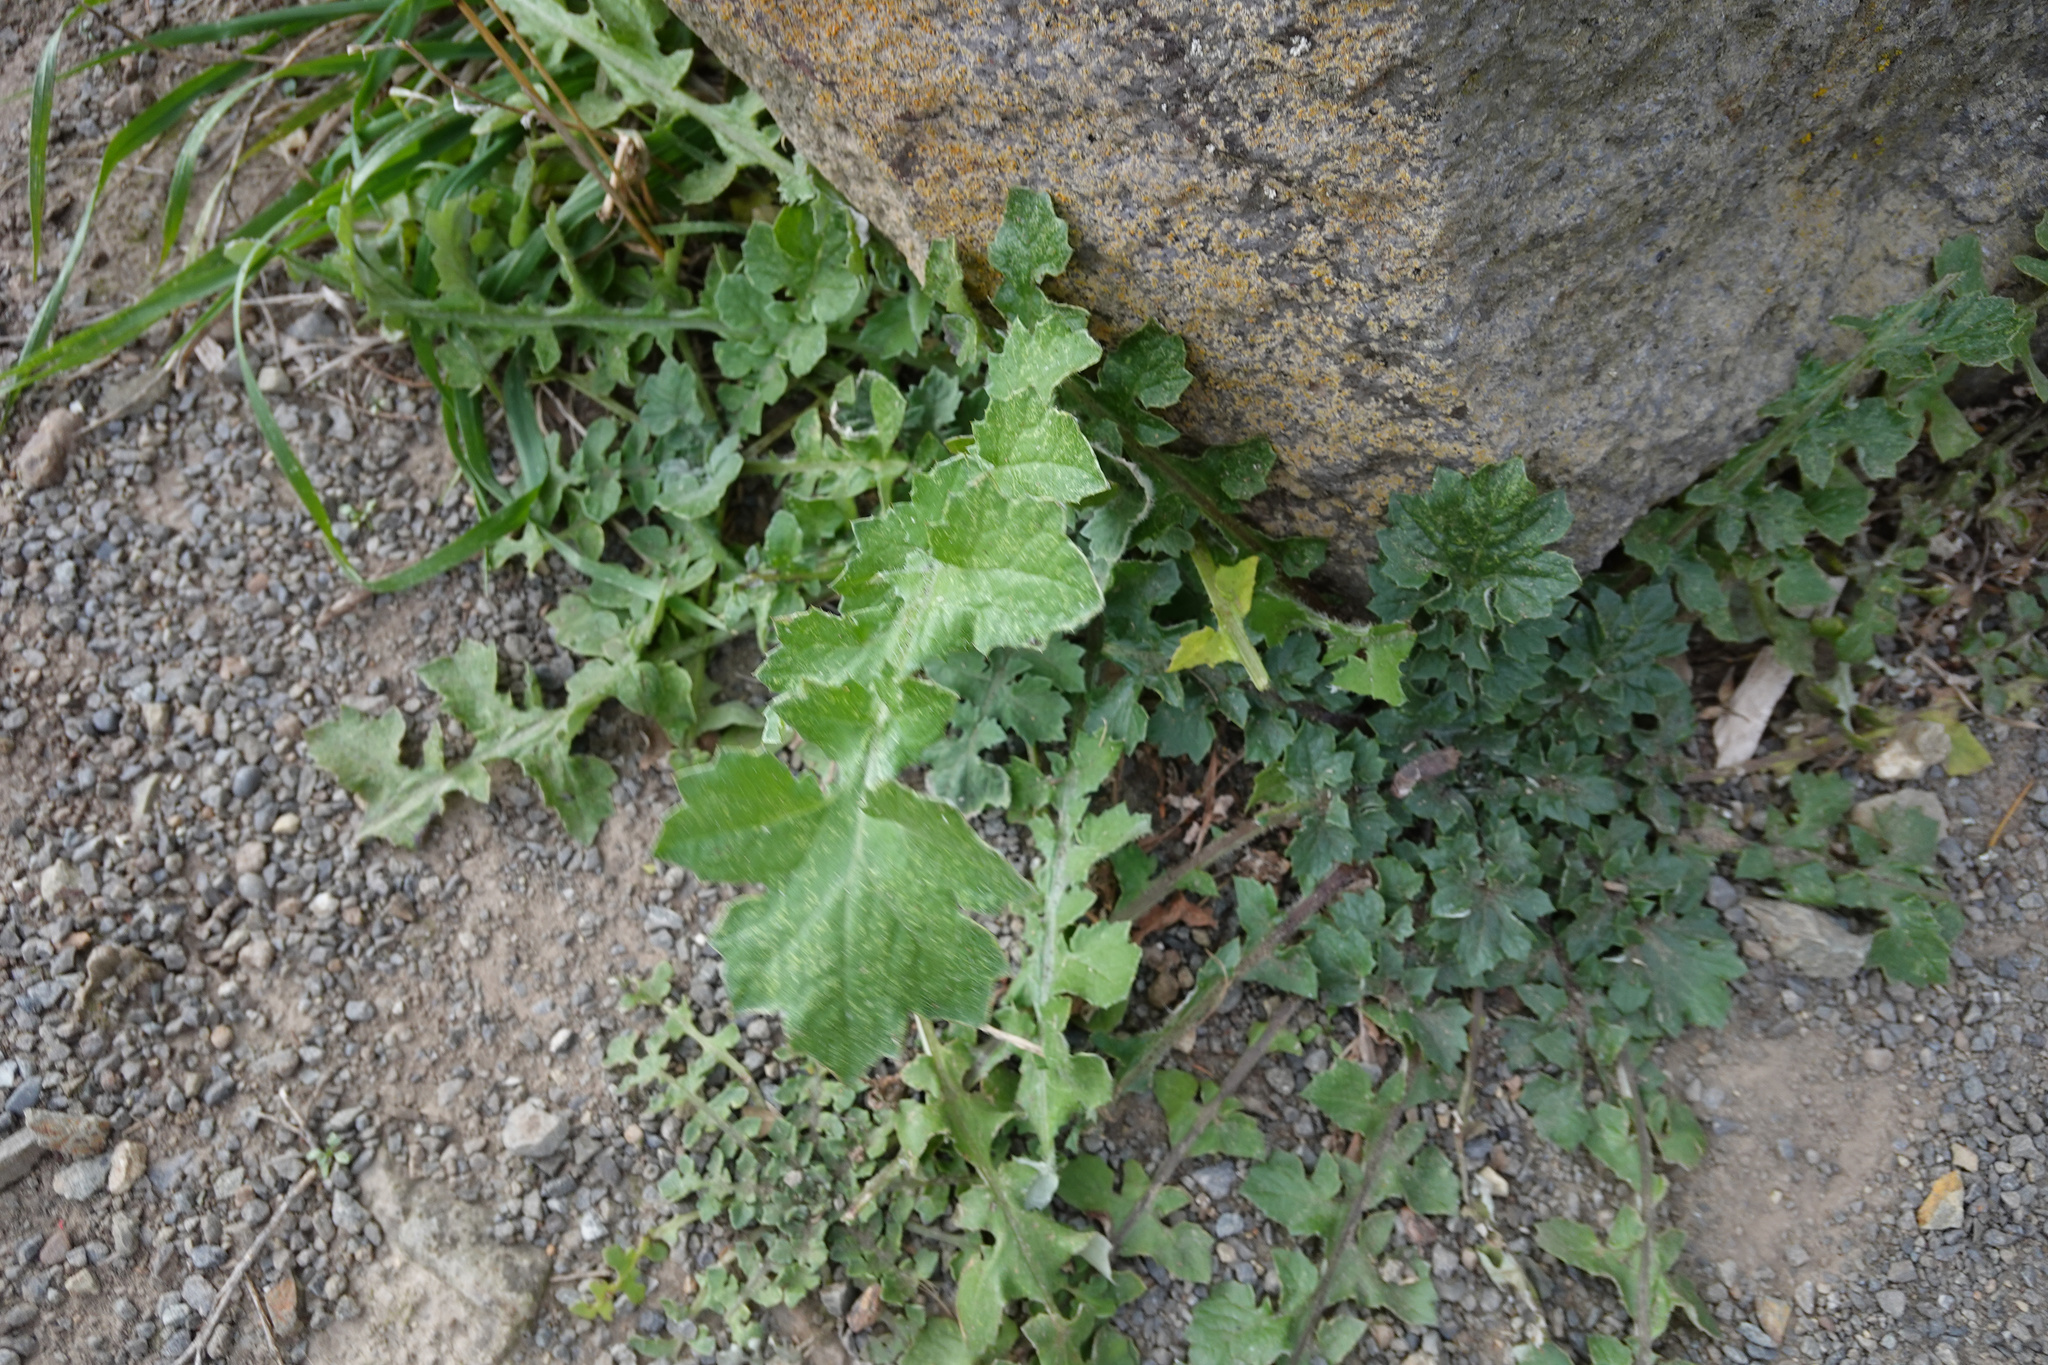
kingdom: Plantae
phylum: Tracheophyta
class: Magnoliopsida
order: Asterales
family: Asteraceae
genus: Arctotheca
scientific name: Arctotheca calendula
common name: Capeweed
